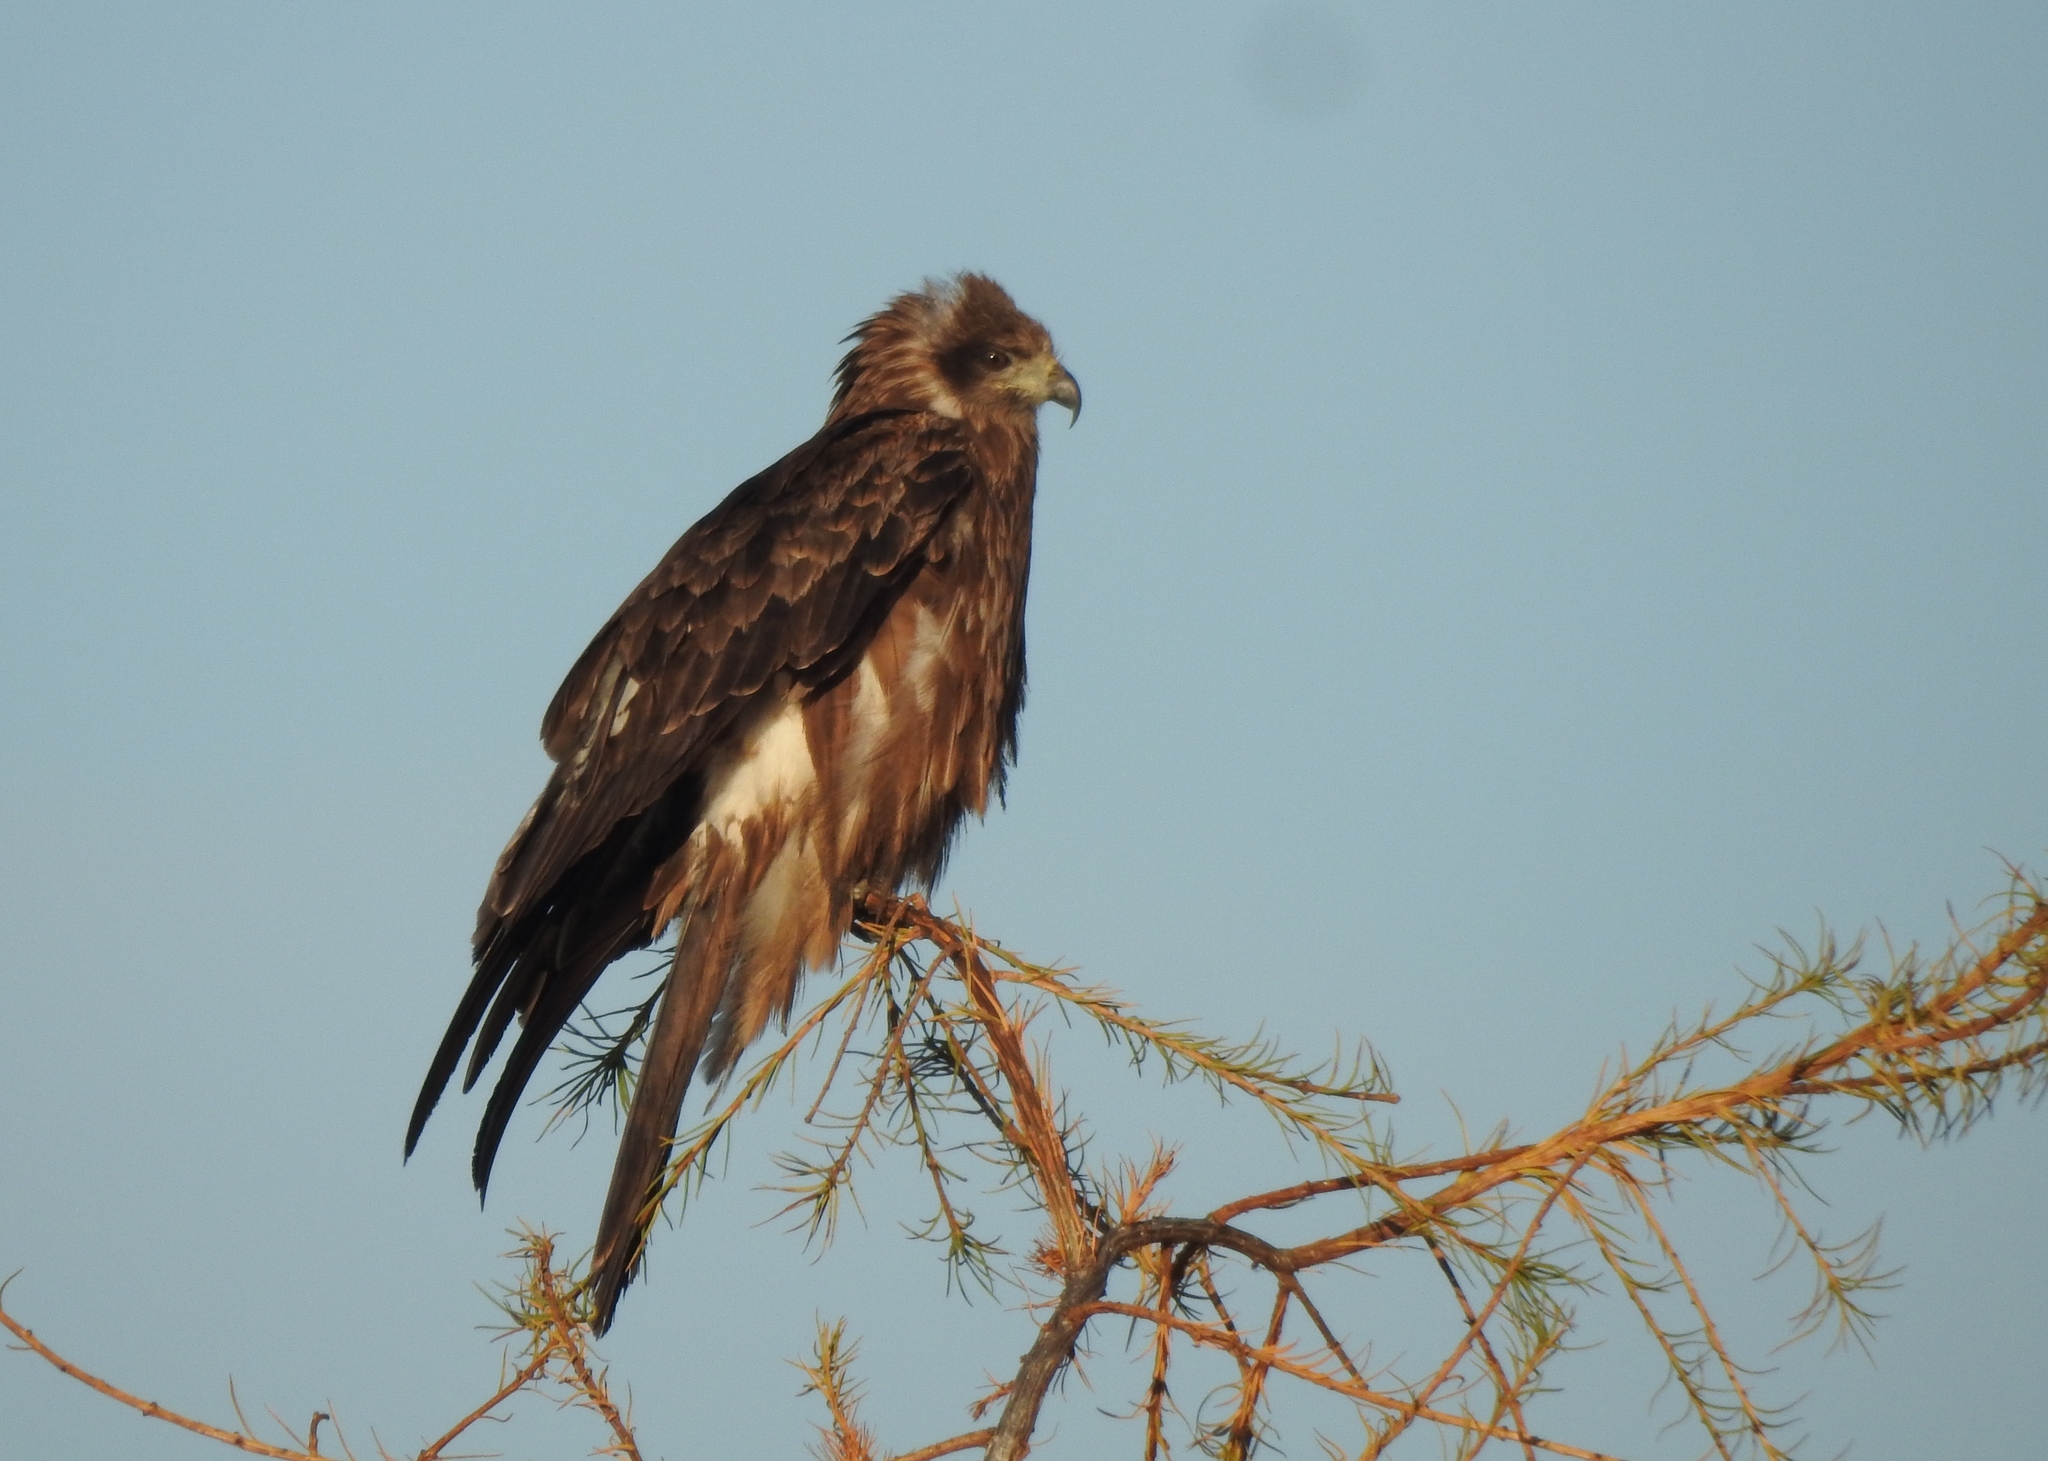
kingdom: Animalia
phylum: Chordata
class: Aves
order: Accipitriformes
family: Accipitridae
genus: Milvus
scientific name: Milvus migrans
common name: Black kite
